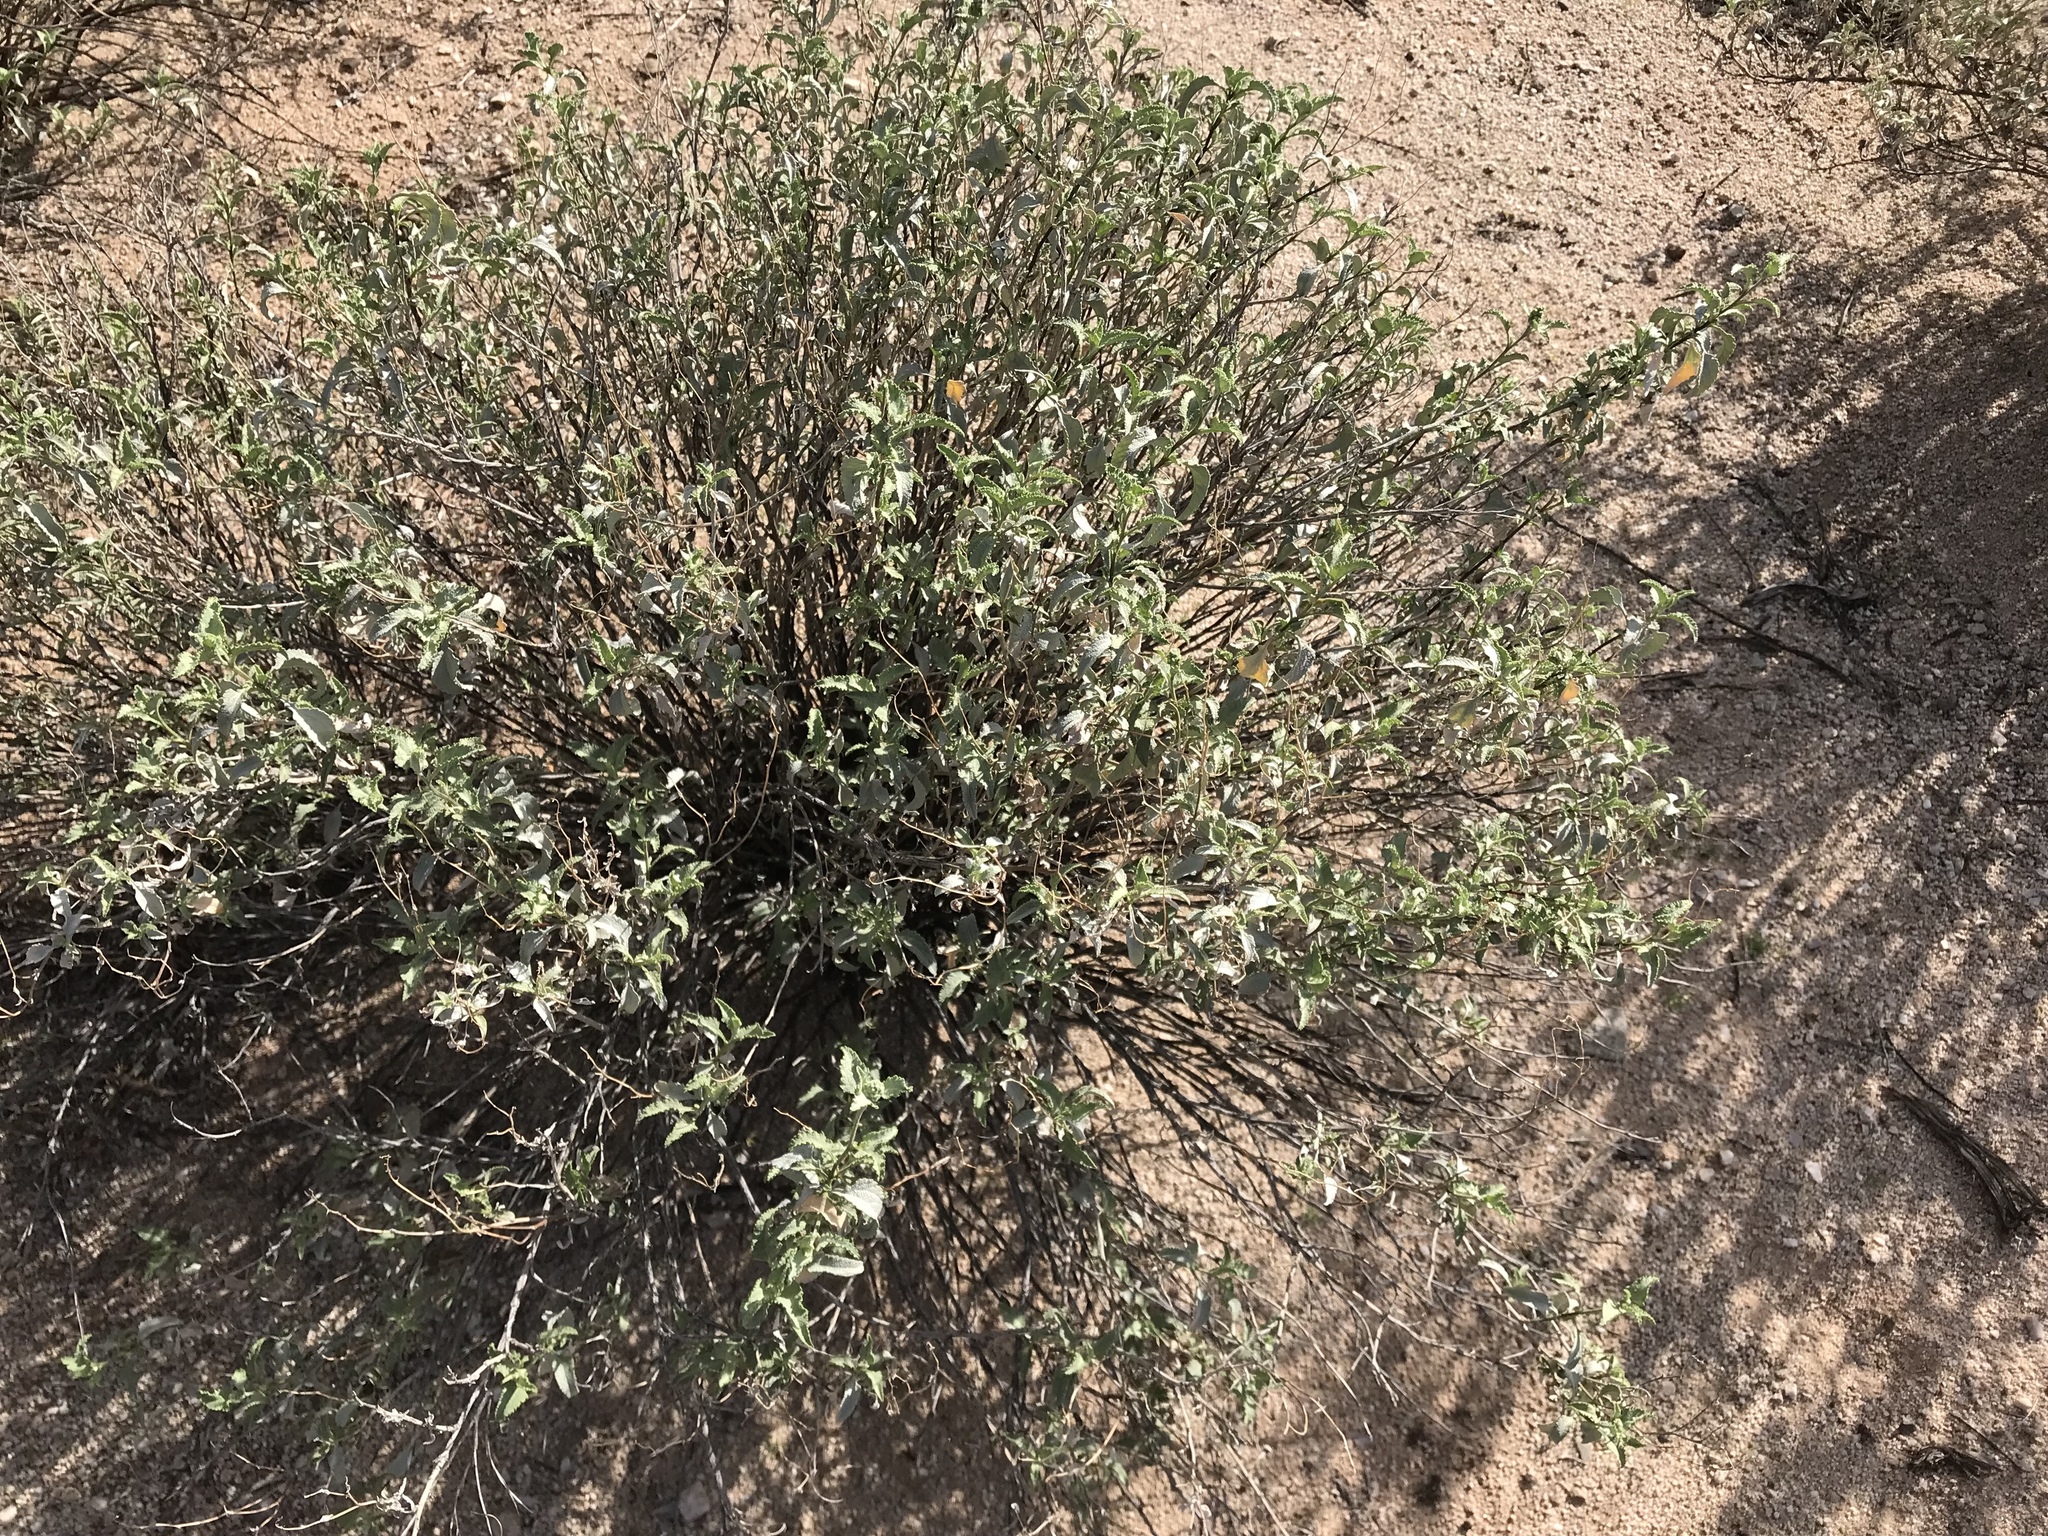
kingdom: Plantae
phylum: Tracheophyta
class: Magnoliopsida
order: Asterales
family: Asteraceae
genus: Ambrosia
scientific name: Ambrosia deltoidea
